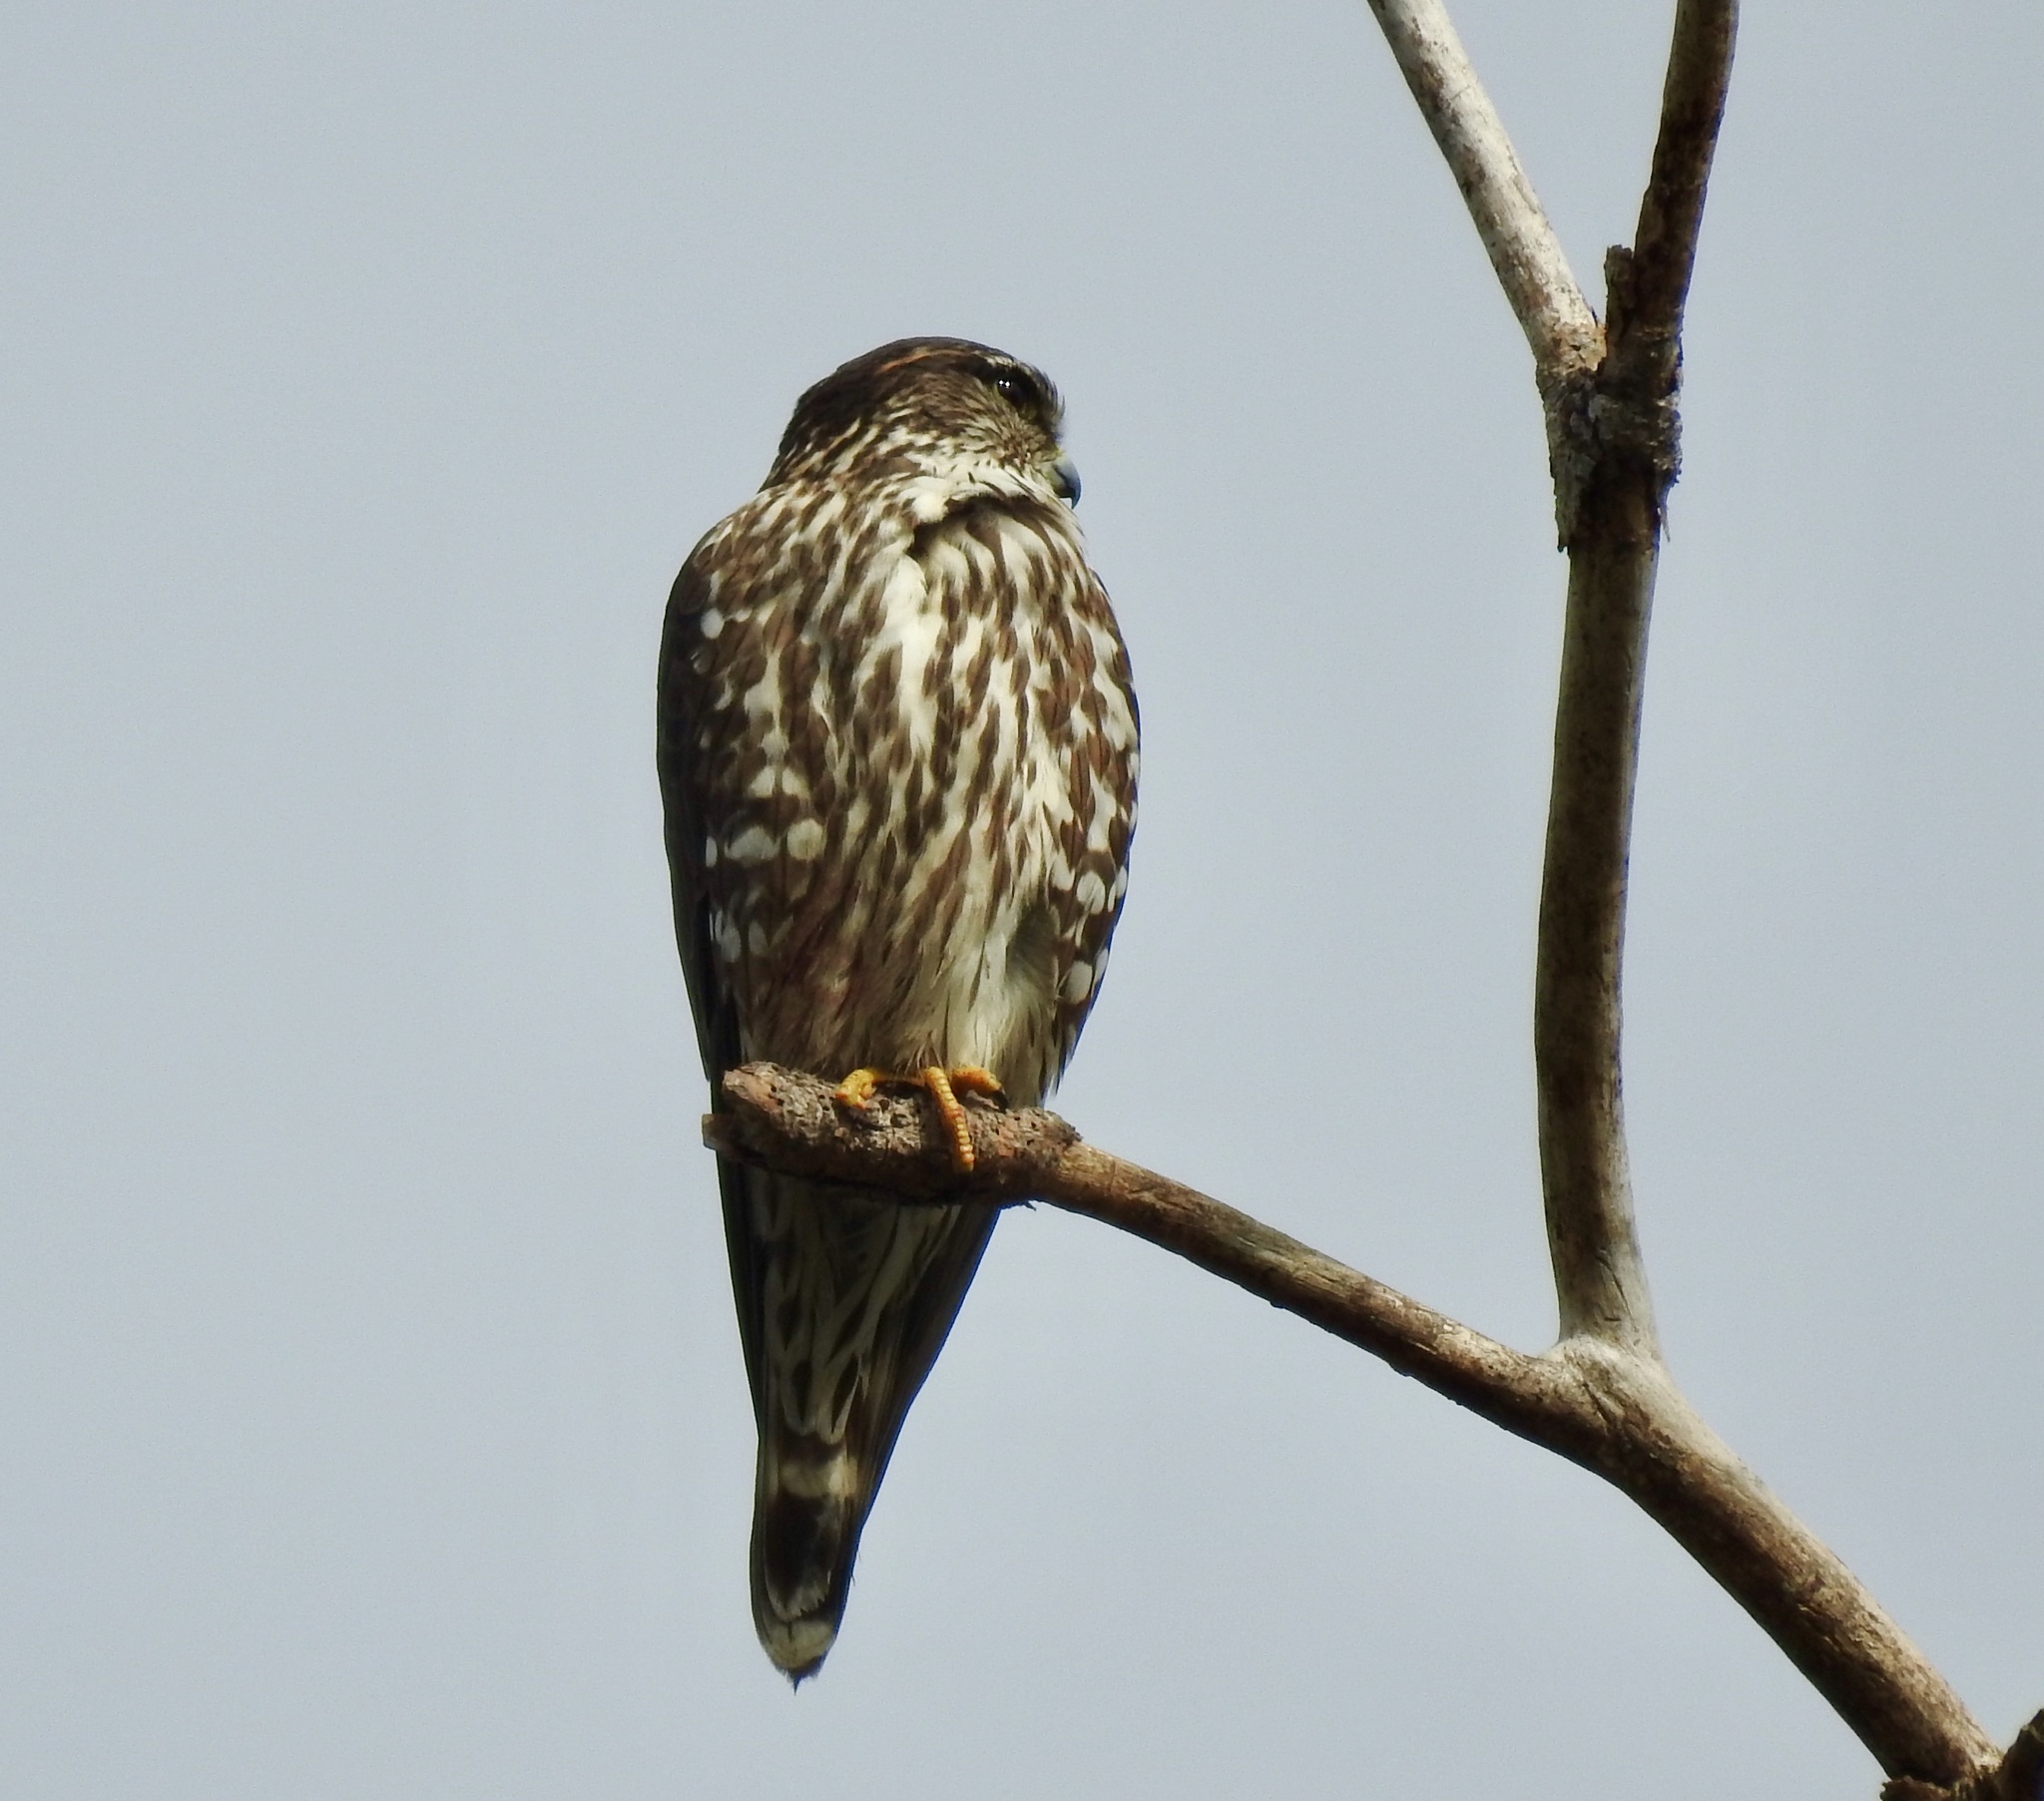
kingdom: Animalia
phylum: Chordata
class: Aves
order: Falconiformes
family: Falconidae
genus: Falco
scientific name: Falco columbarius
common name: Merlin
